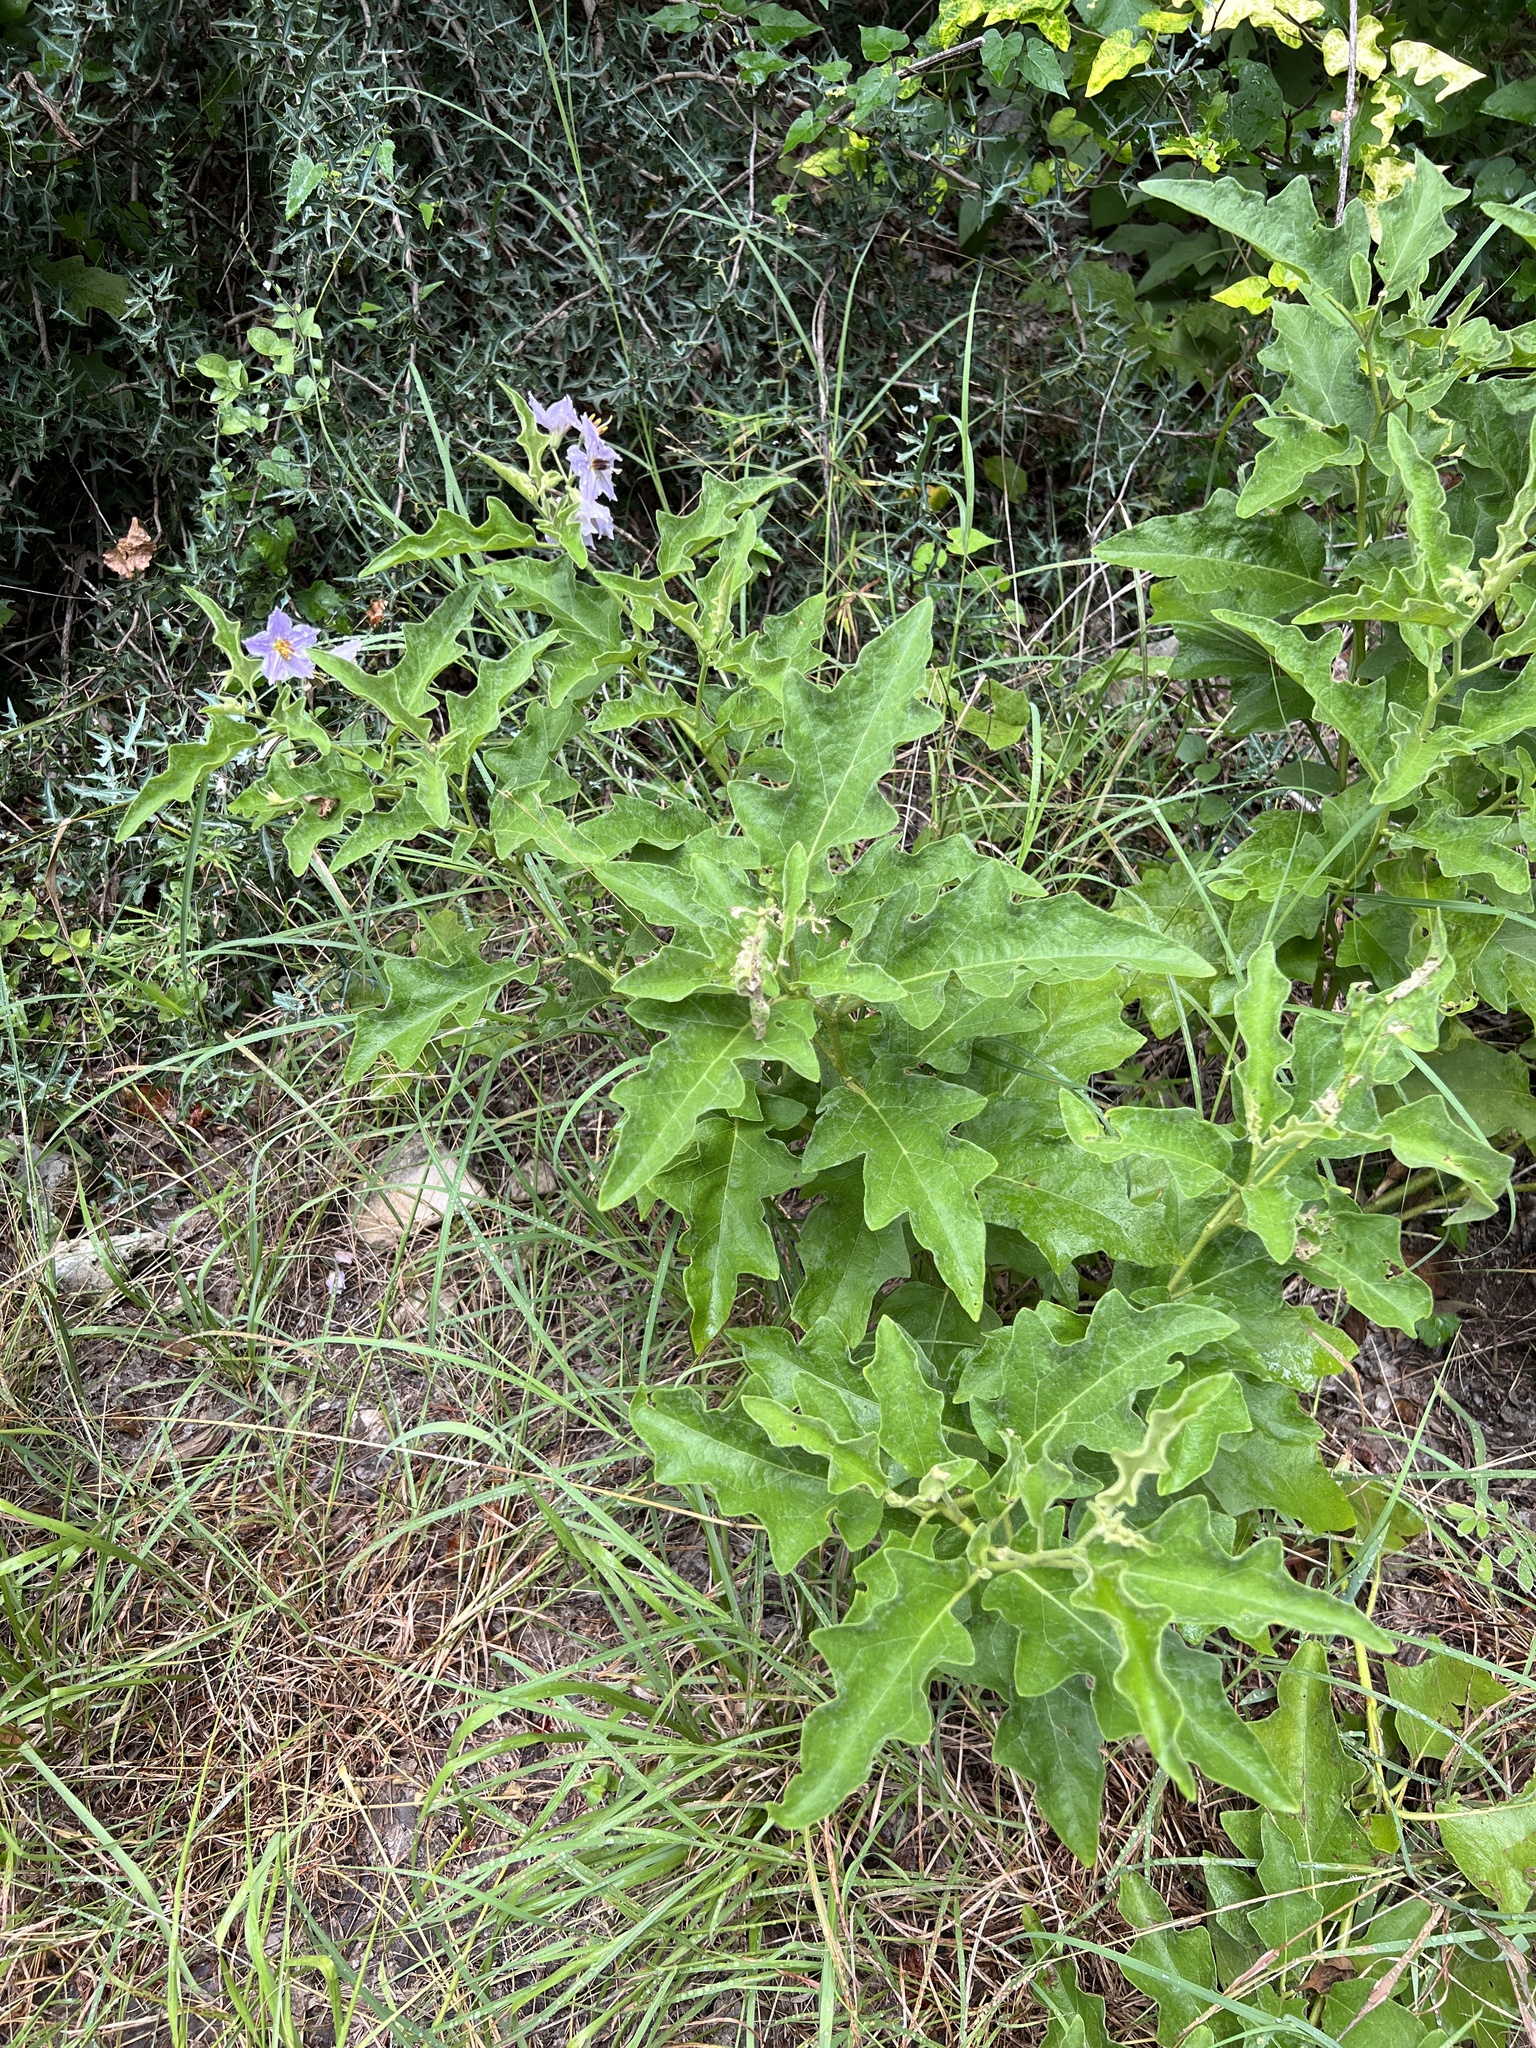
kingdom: Plantae
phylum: Tracheophyta
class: Magnoliopsida
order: Solanales
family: Solanaceae
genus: Solanum
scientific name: Solanum dimidiatum
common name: Carolina horse-nettle
